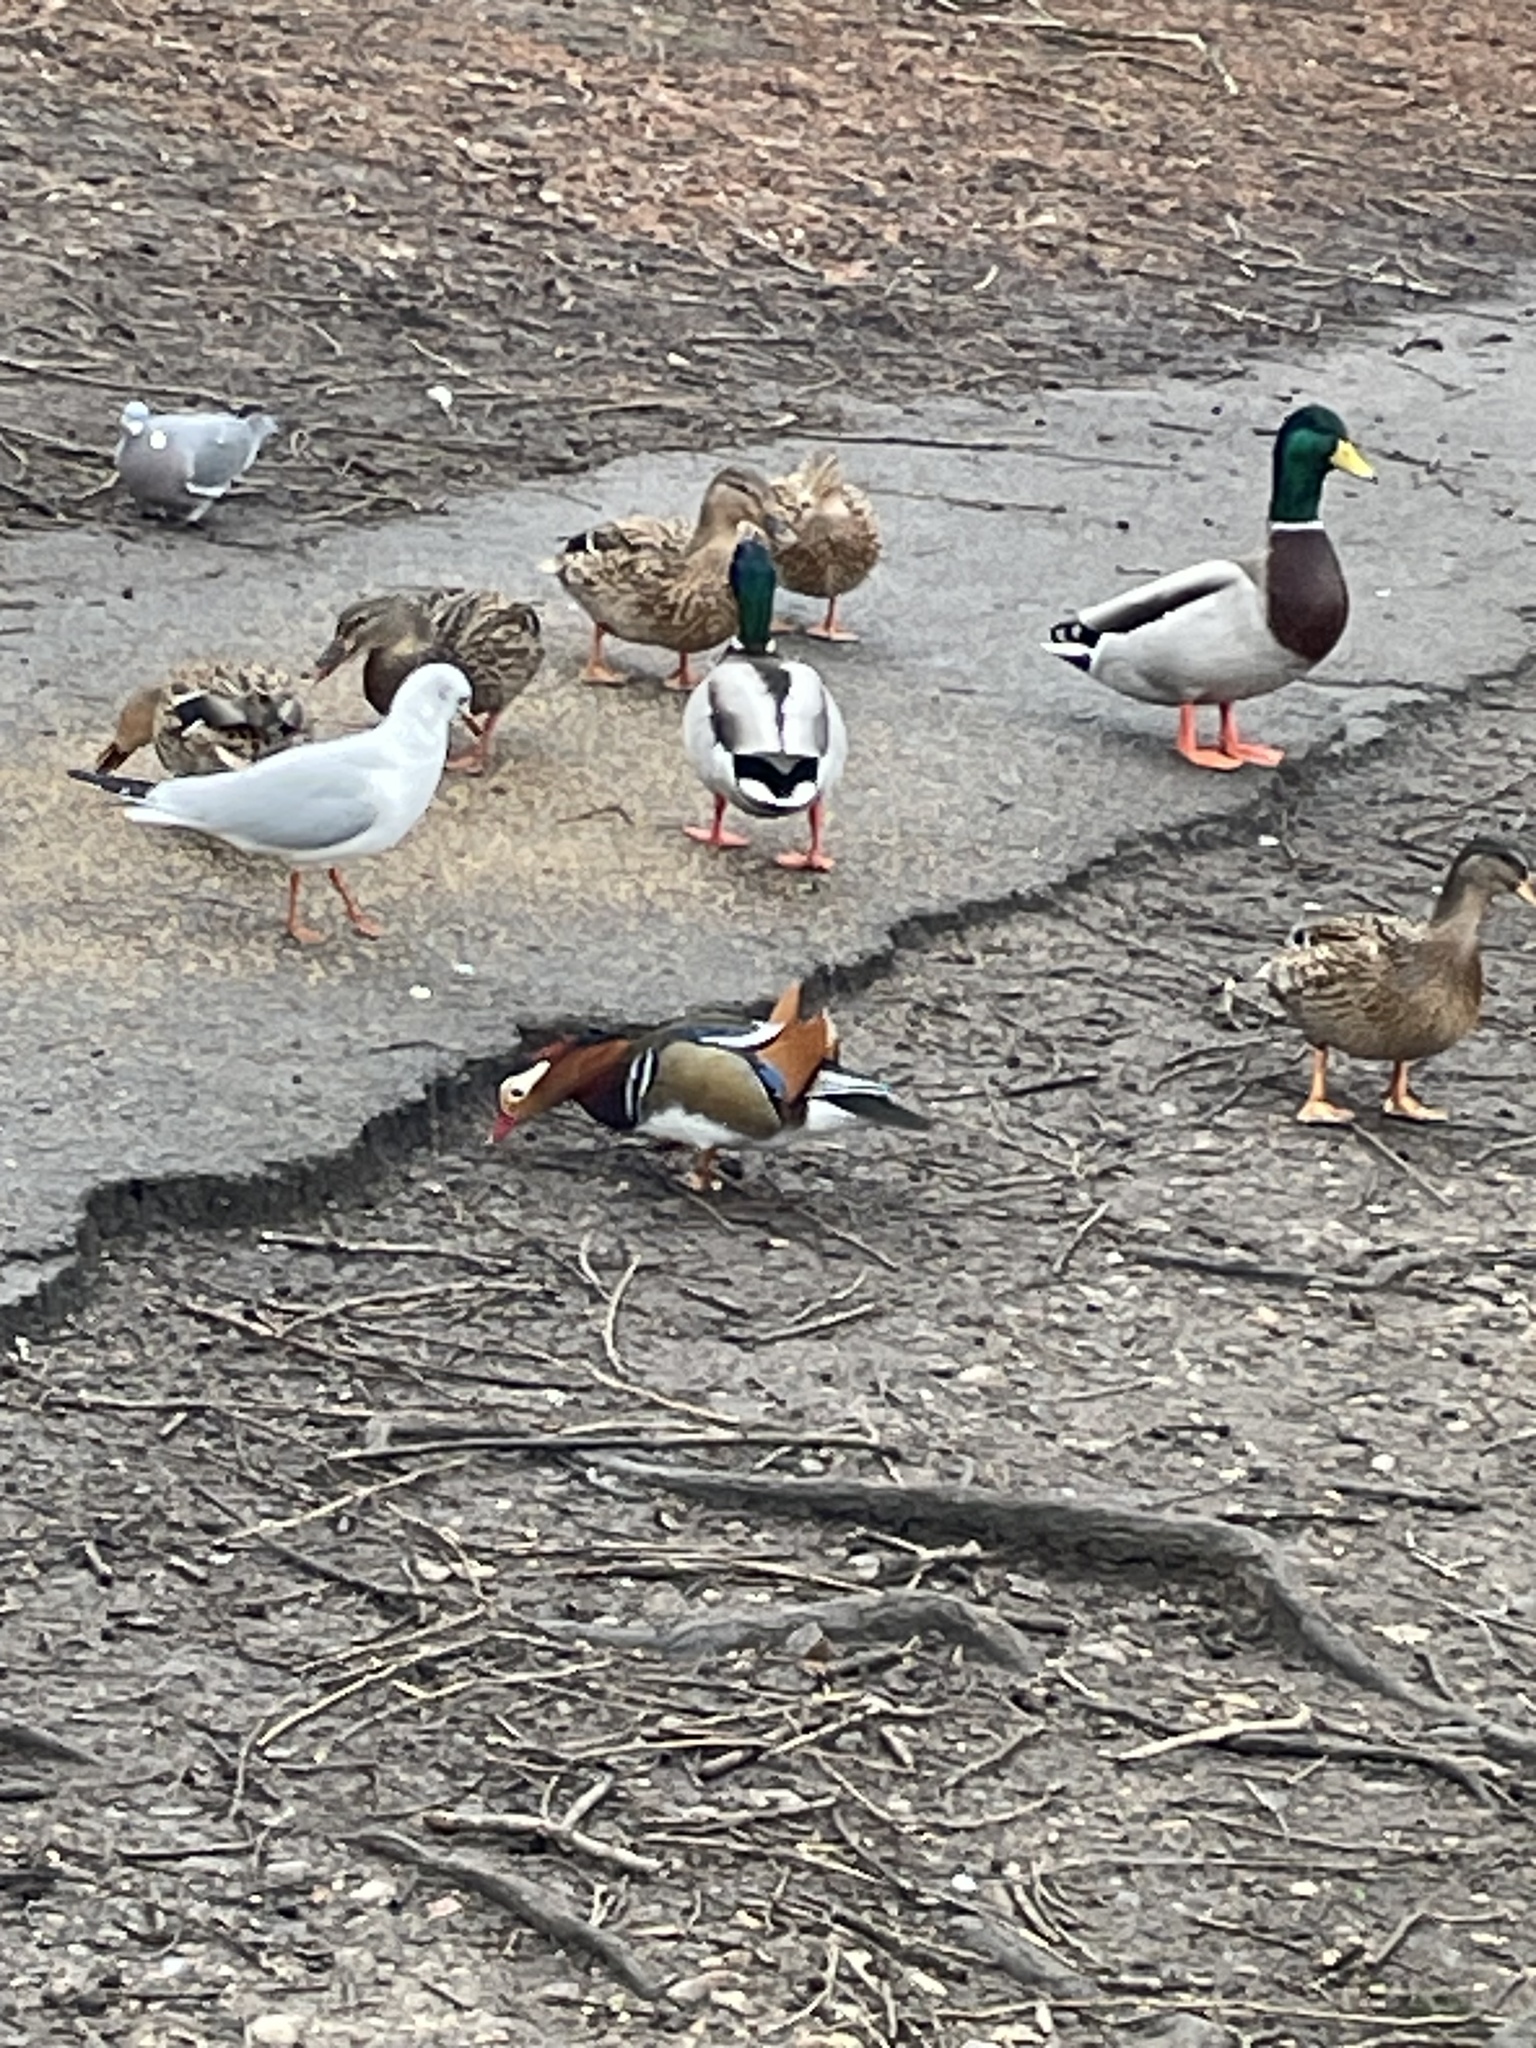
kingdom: Animalia
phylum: Chordata
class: Aves
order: Anseriformes
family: Anatidae
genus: Aix
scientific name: Aix galericulata
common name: Mandarin duck
